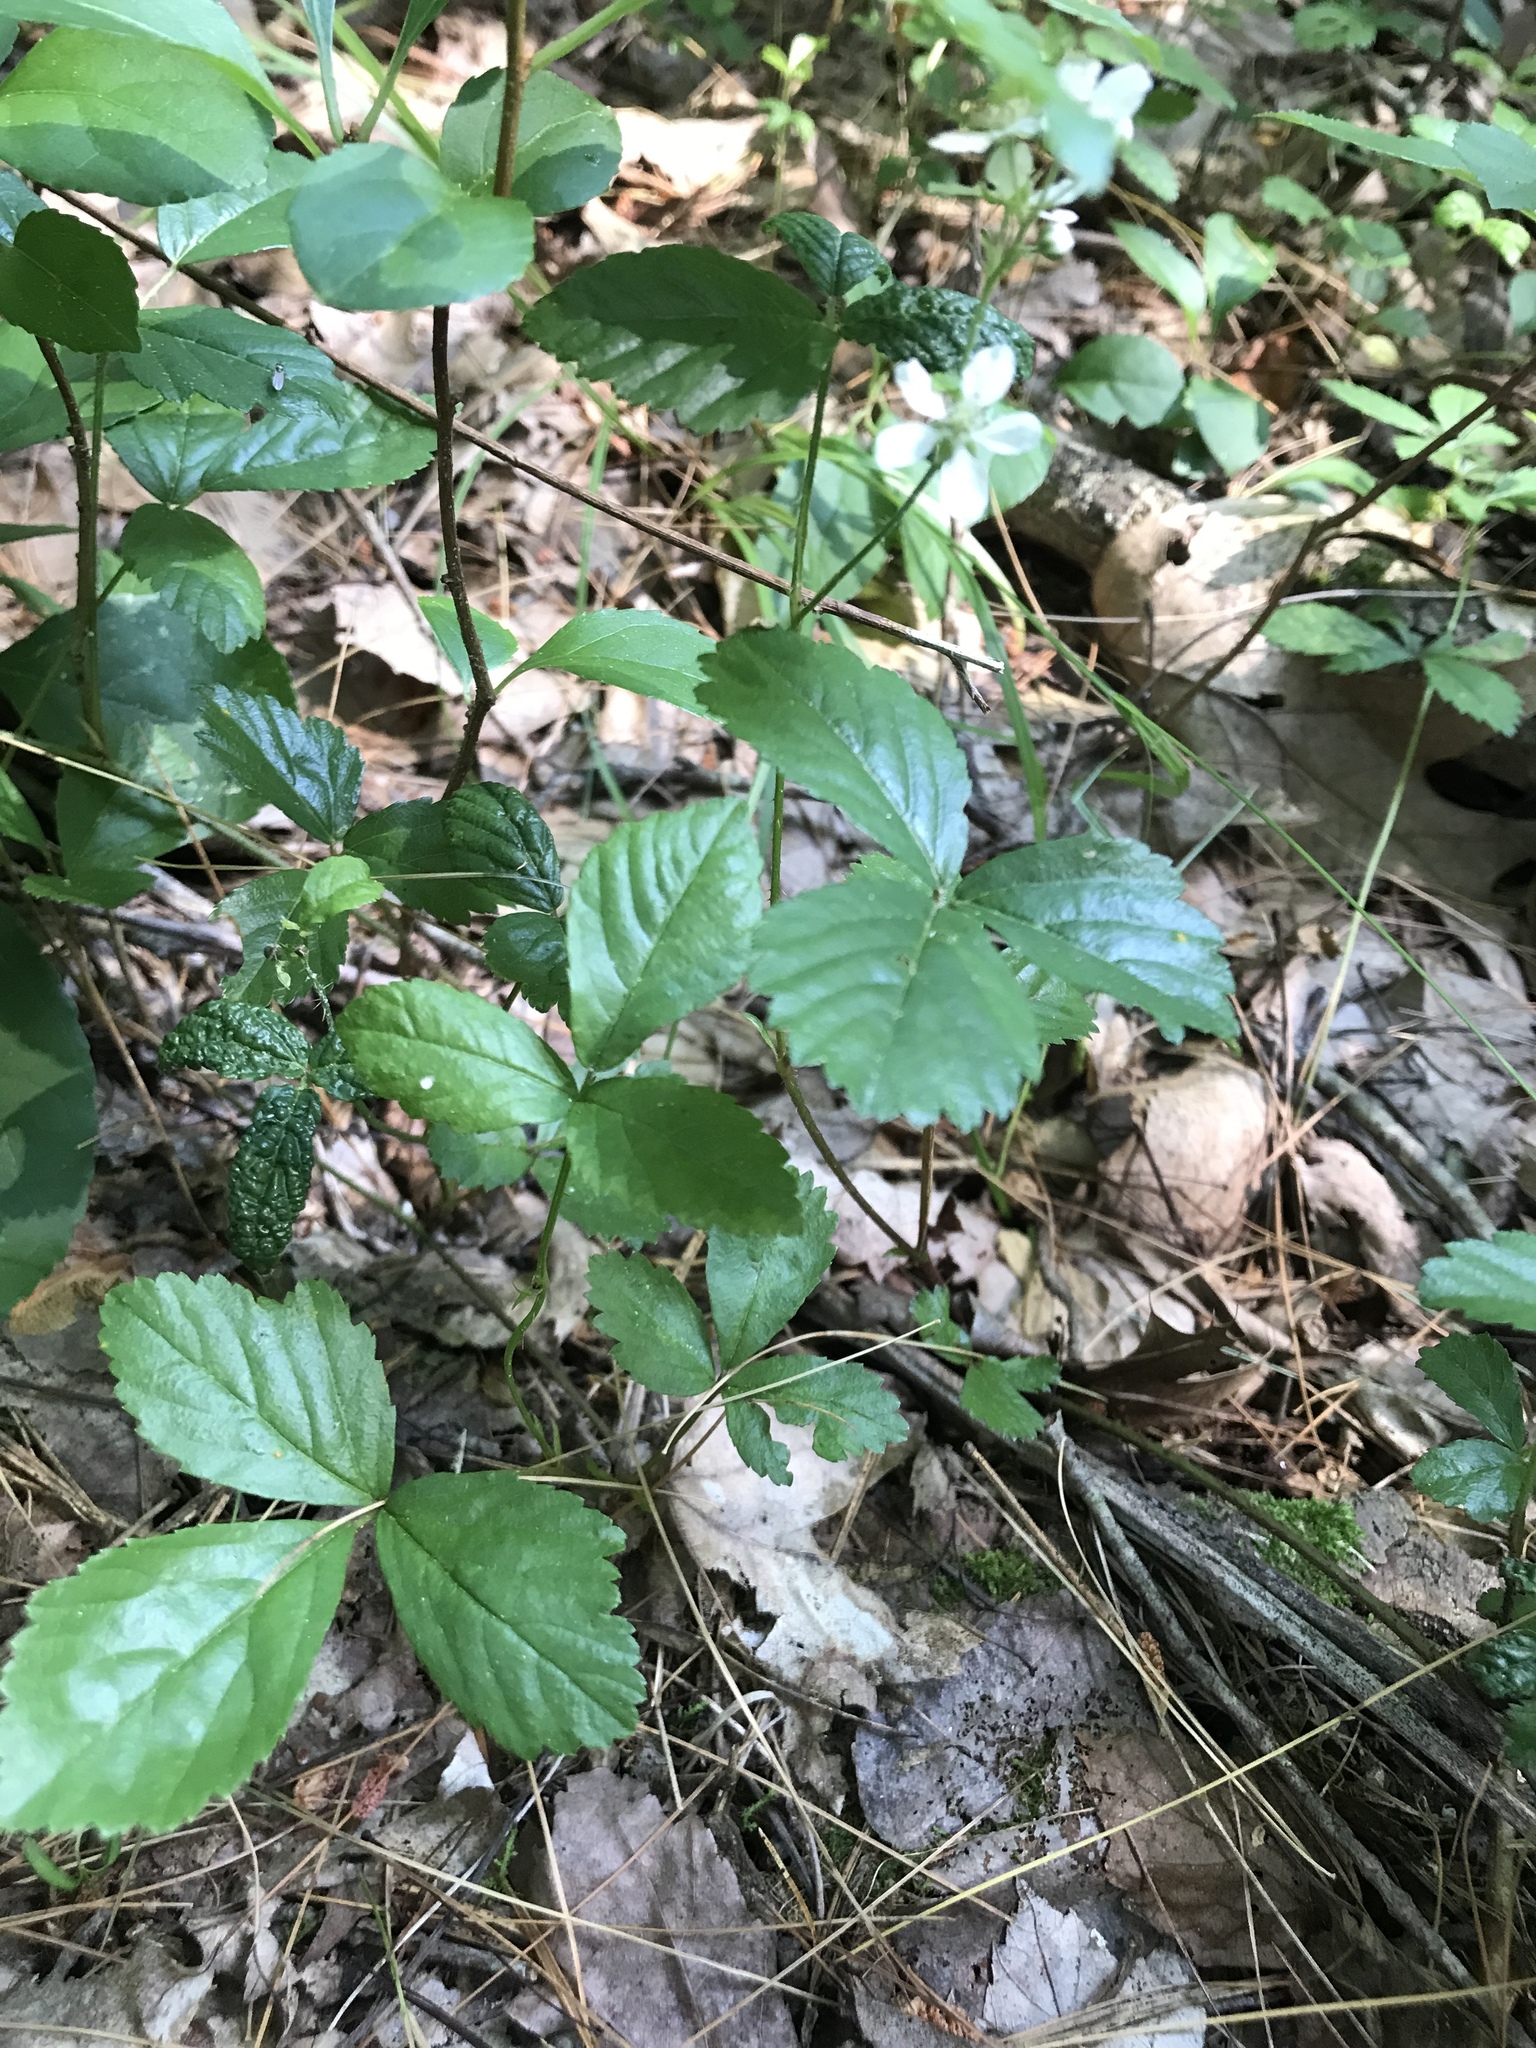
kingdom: Plantae
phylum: Tracheophyta
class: Magnoliopsida
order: Rosales
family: Rosaceae
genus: Rubus
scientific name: Rubus hispidus
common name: Running blackberry
